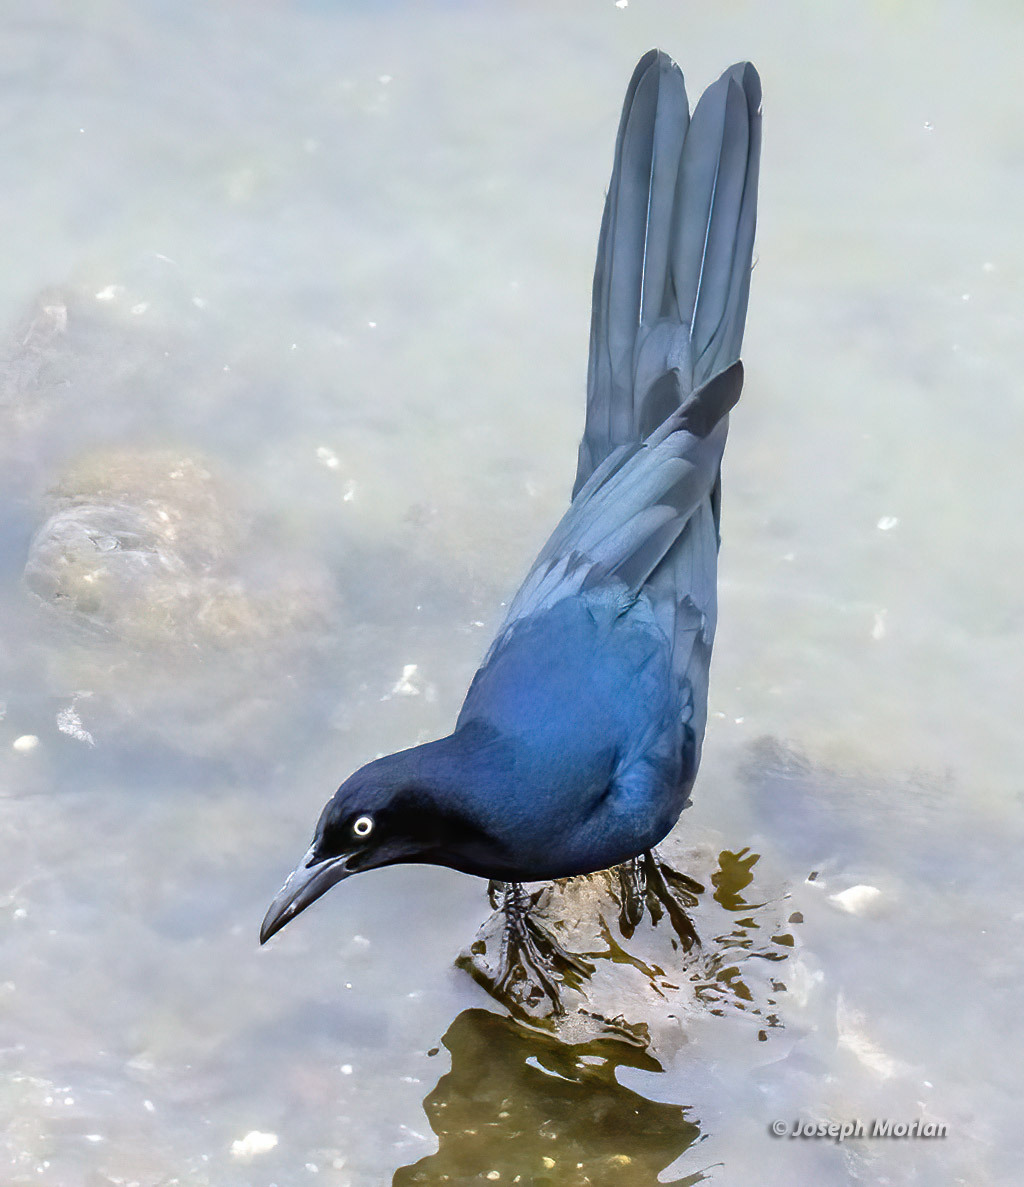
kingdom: Animalia
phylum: Chordata
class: Aves
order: Passeriformes
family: Icteridae
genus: Quiscalus
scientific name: Quiscalus mexicanus
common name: Great-tailed grackle
